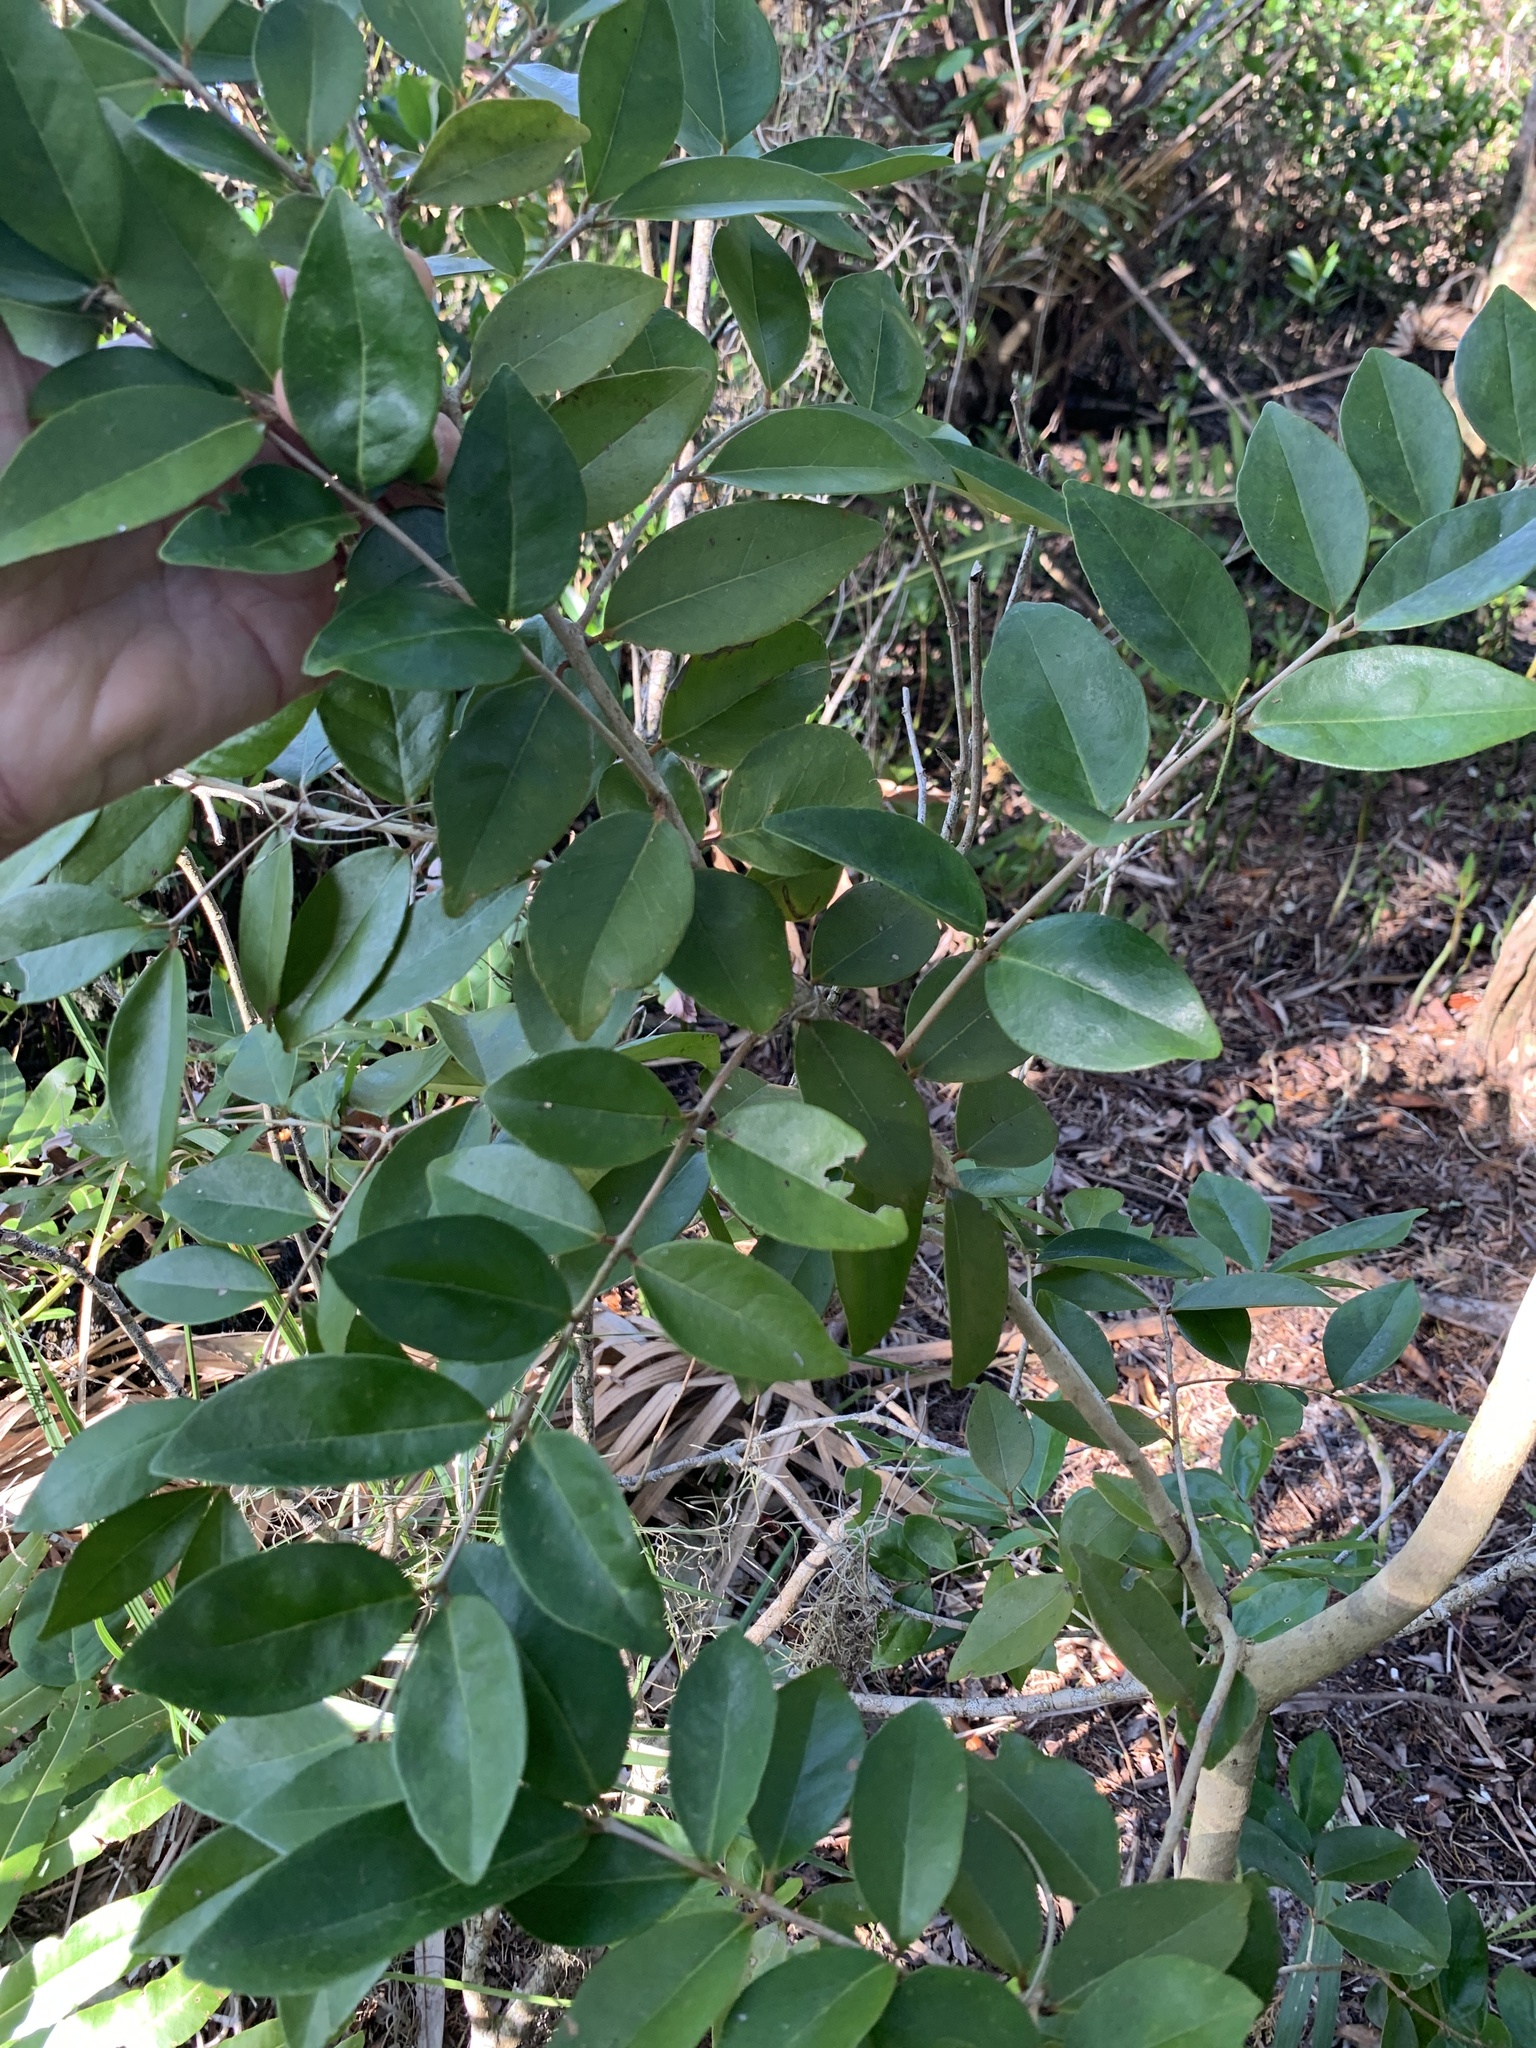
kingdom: Plantae
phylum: Tracheophyta
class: Magnoliopsida
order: Myrtales
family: Myrtaceae
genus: Eugenia
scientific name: Eugenia axillaris
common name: Choaky berry
